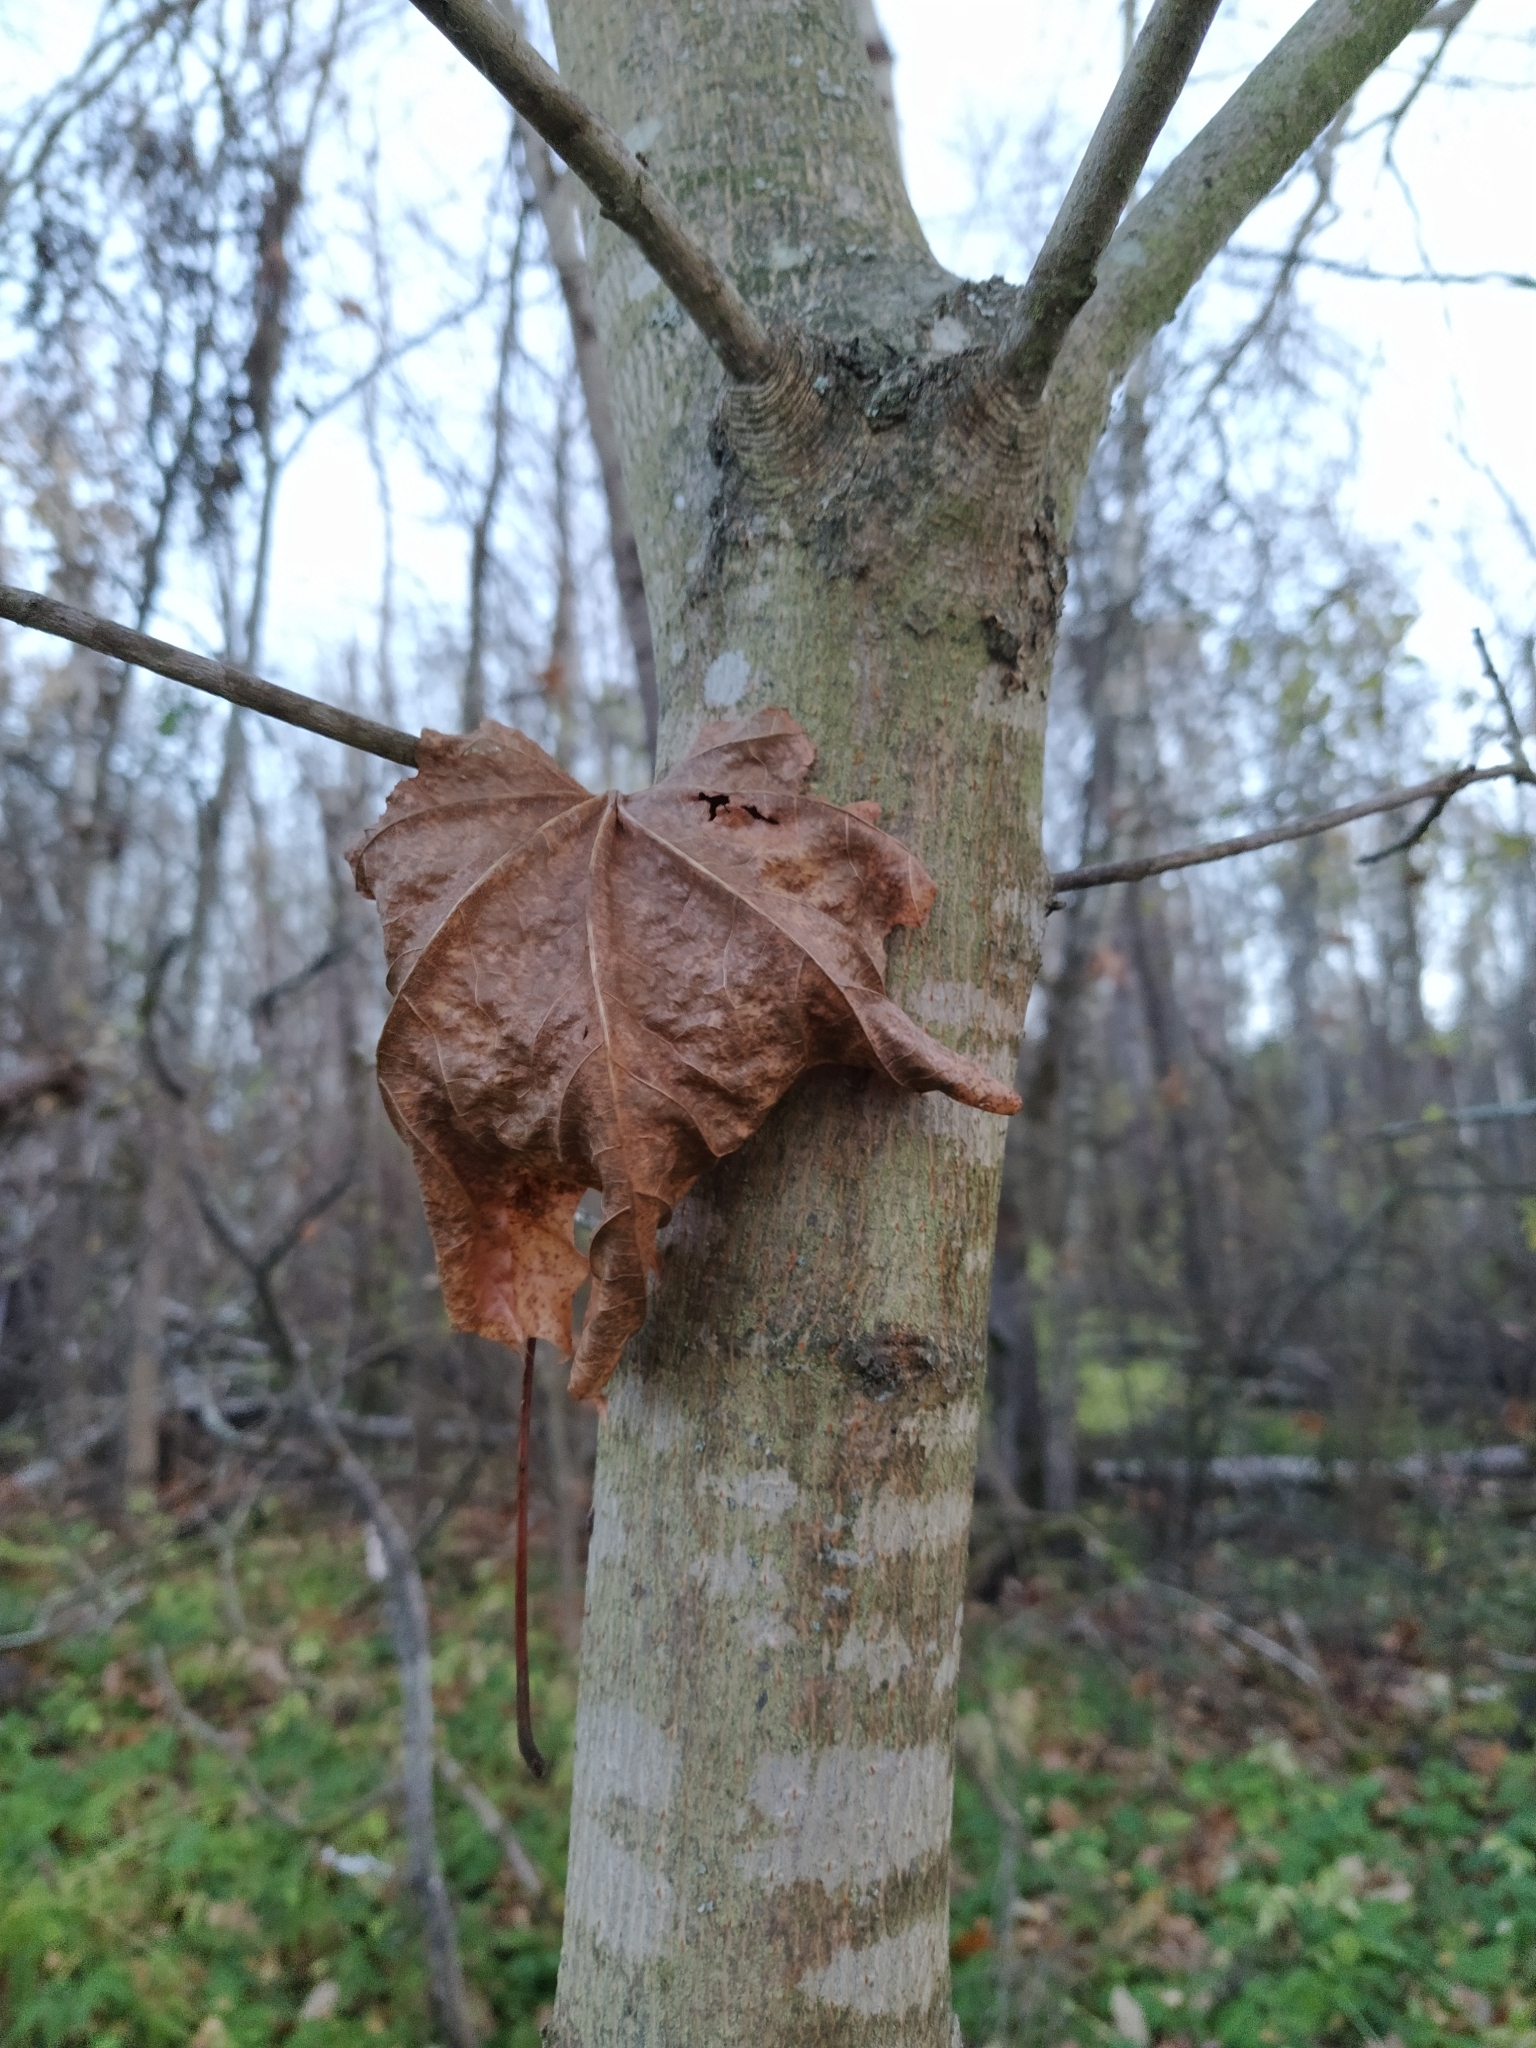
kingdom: Plantae
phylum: Tracheophyta
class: Magnoliopsida
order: Sapindales
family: Sapindaceae
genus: Acer
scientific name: Acer platanoides
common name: Norway maple
